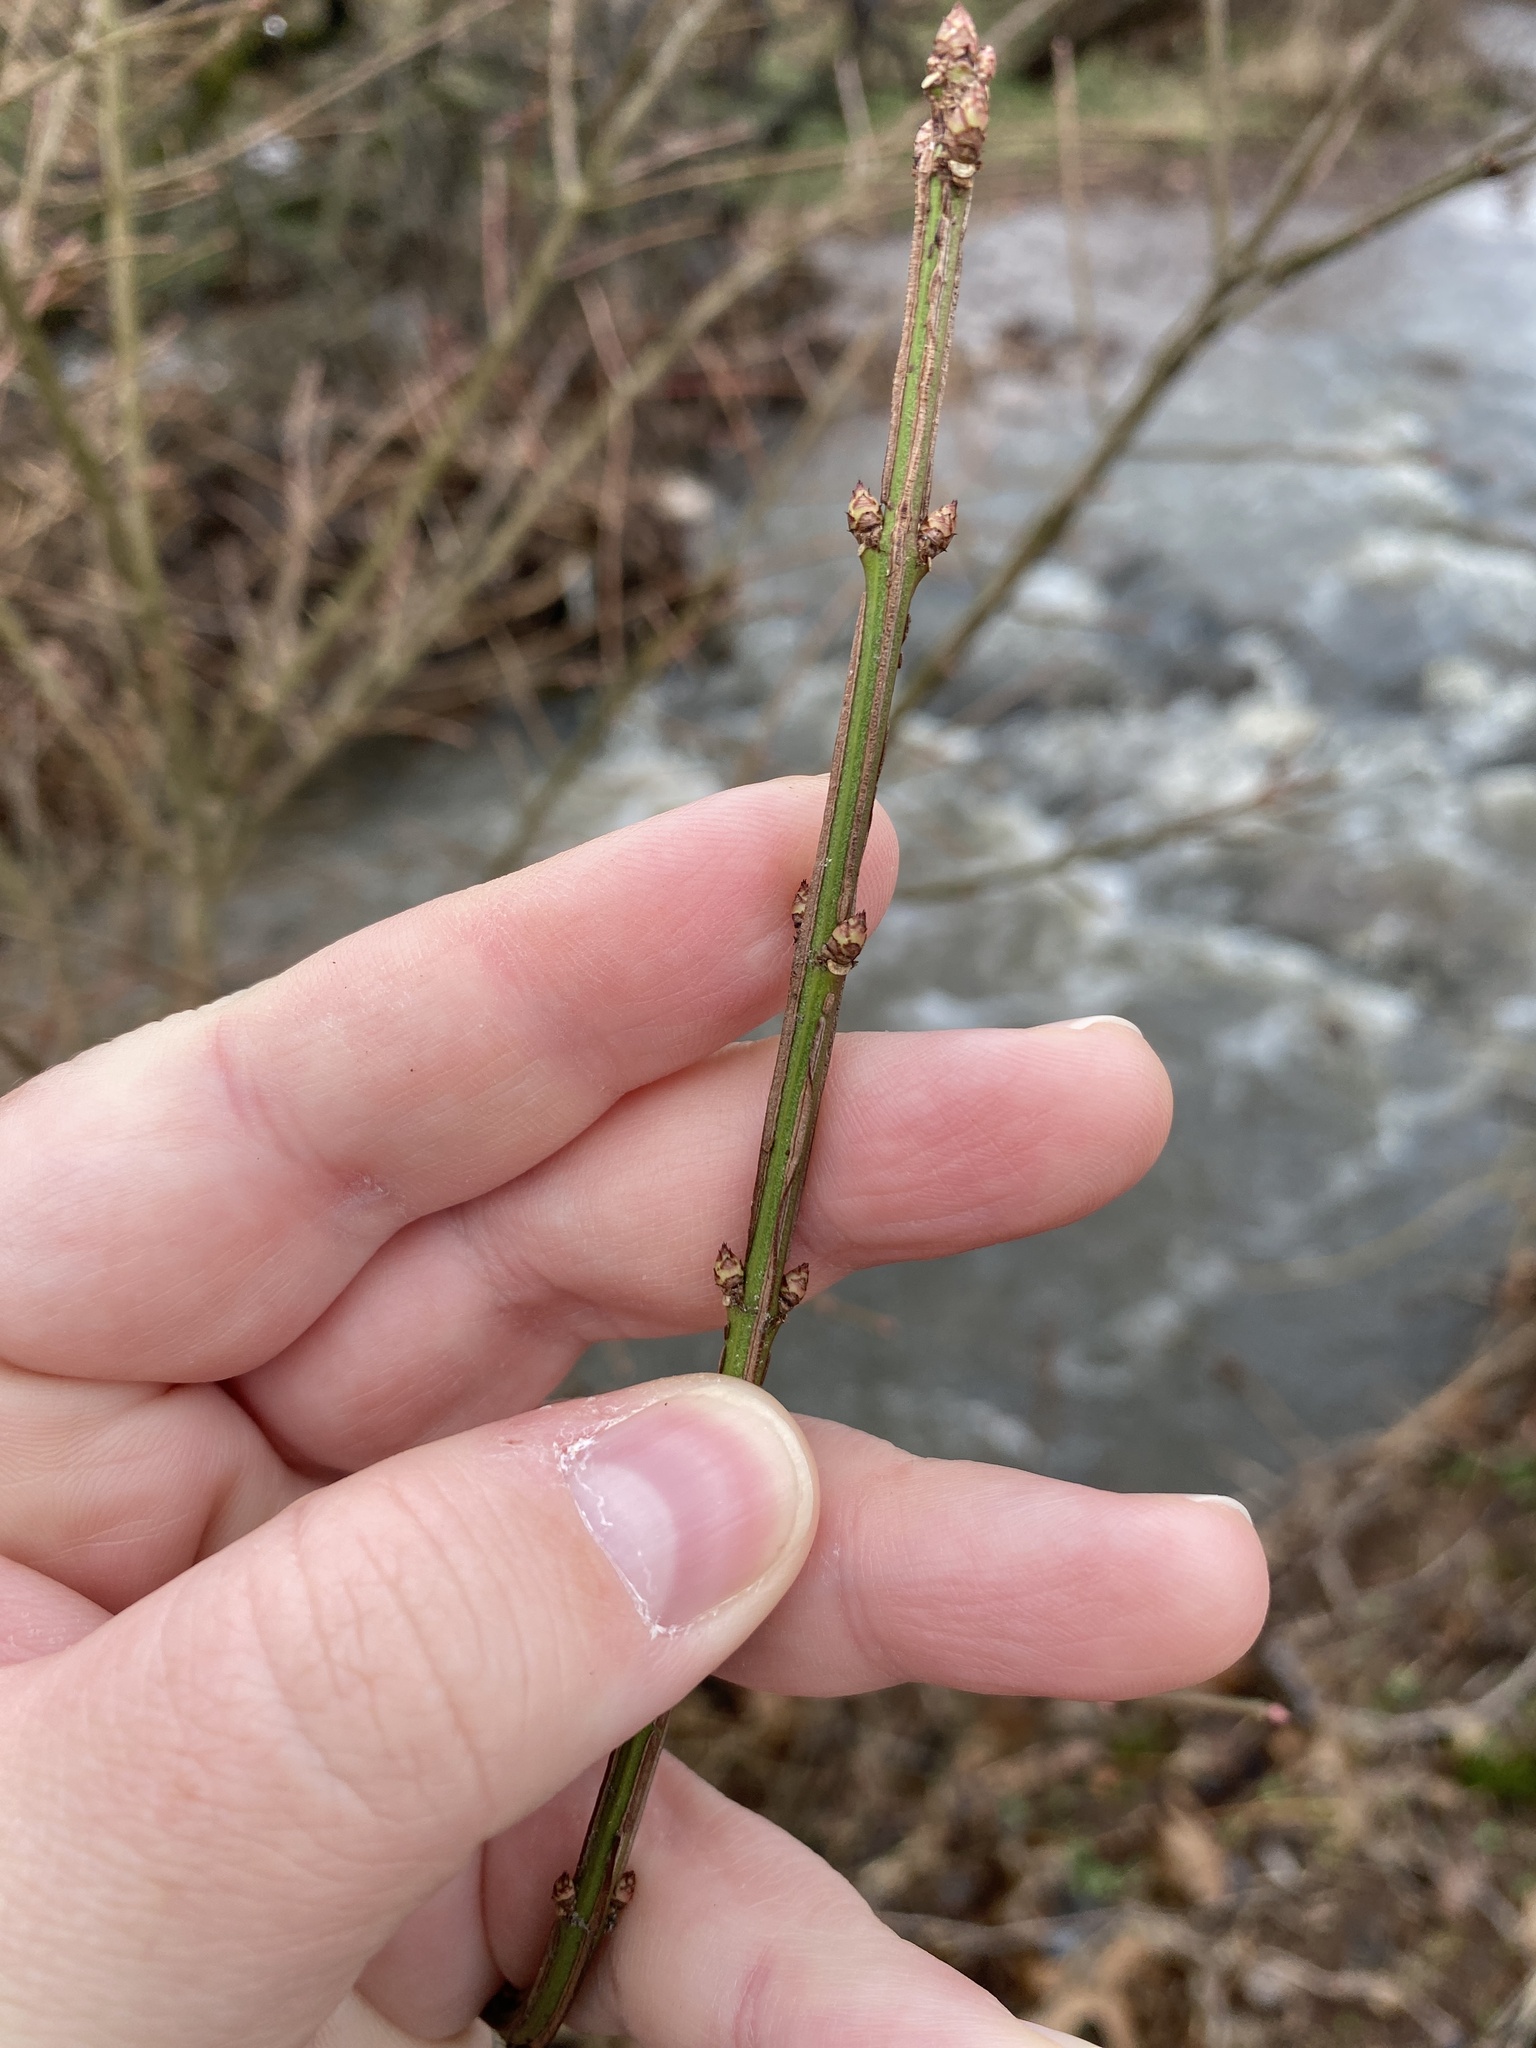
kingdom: Plantae
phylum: Tracheophyta
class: Magnoliopsida
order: Celastrales
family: Celastraceae
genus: Euonymus
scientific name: Euonymus alatus
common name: Winged euonymus
